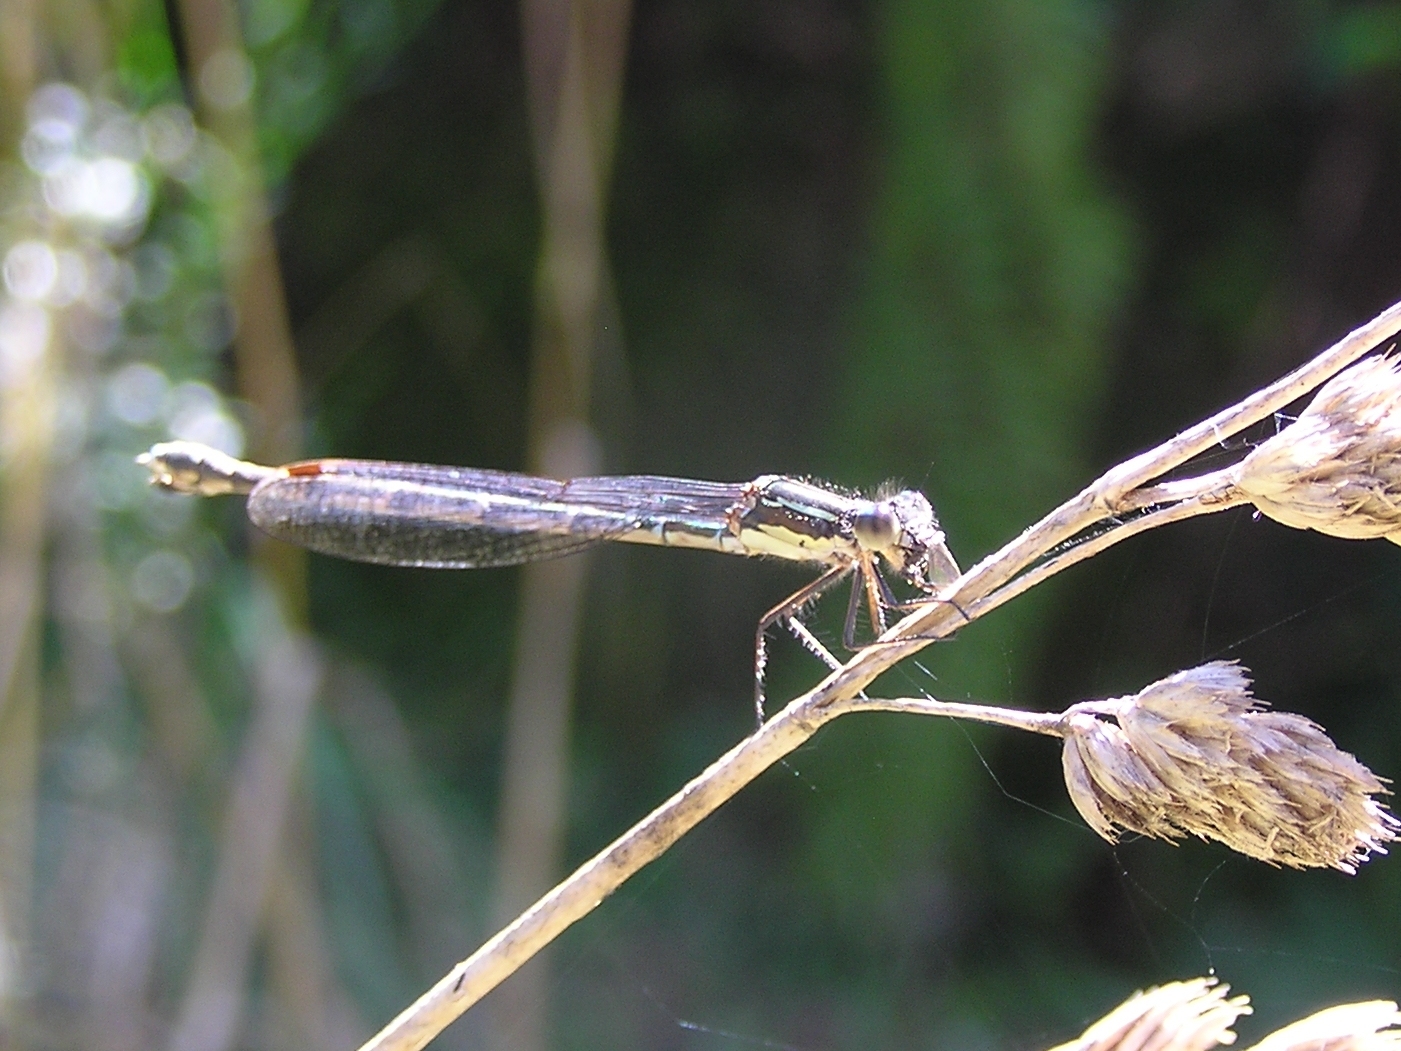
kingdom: Animalia
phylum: Arthropoda
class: Insecta
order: Odonata
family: Lestidae
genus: Austrolestes
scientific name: Austrolestes colensonis
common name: Blue damselfly
